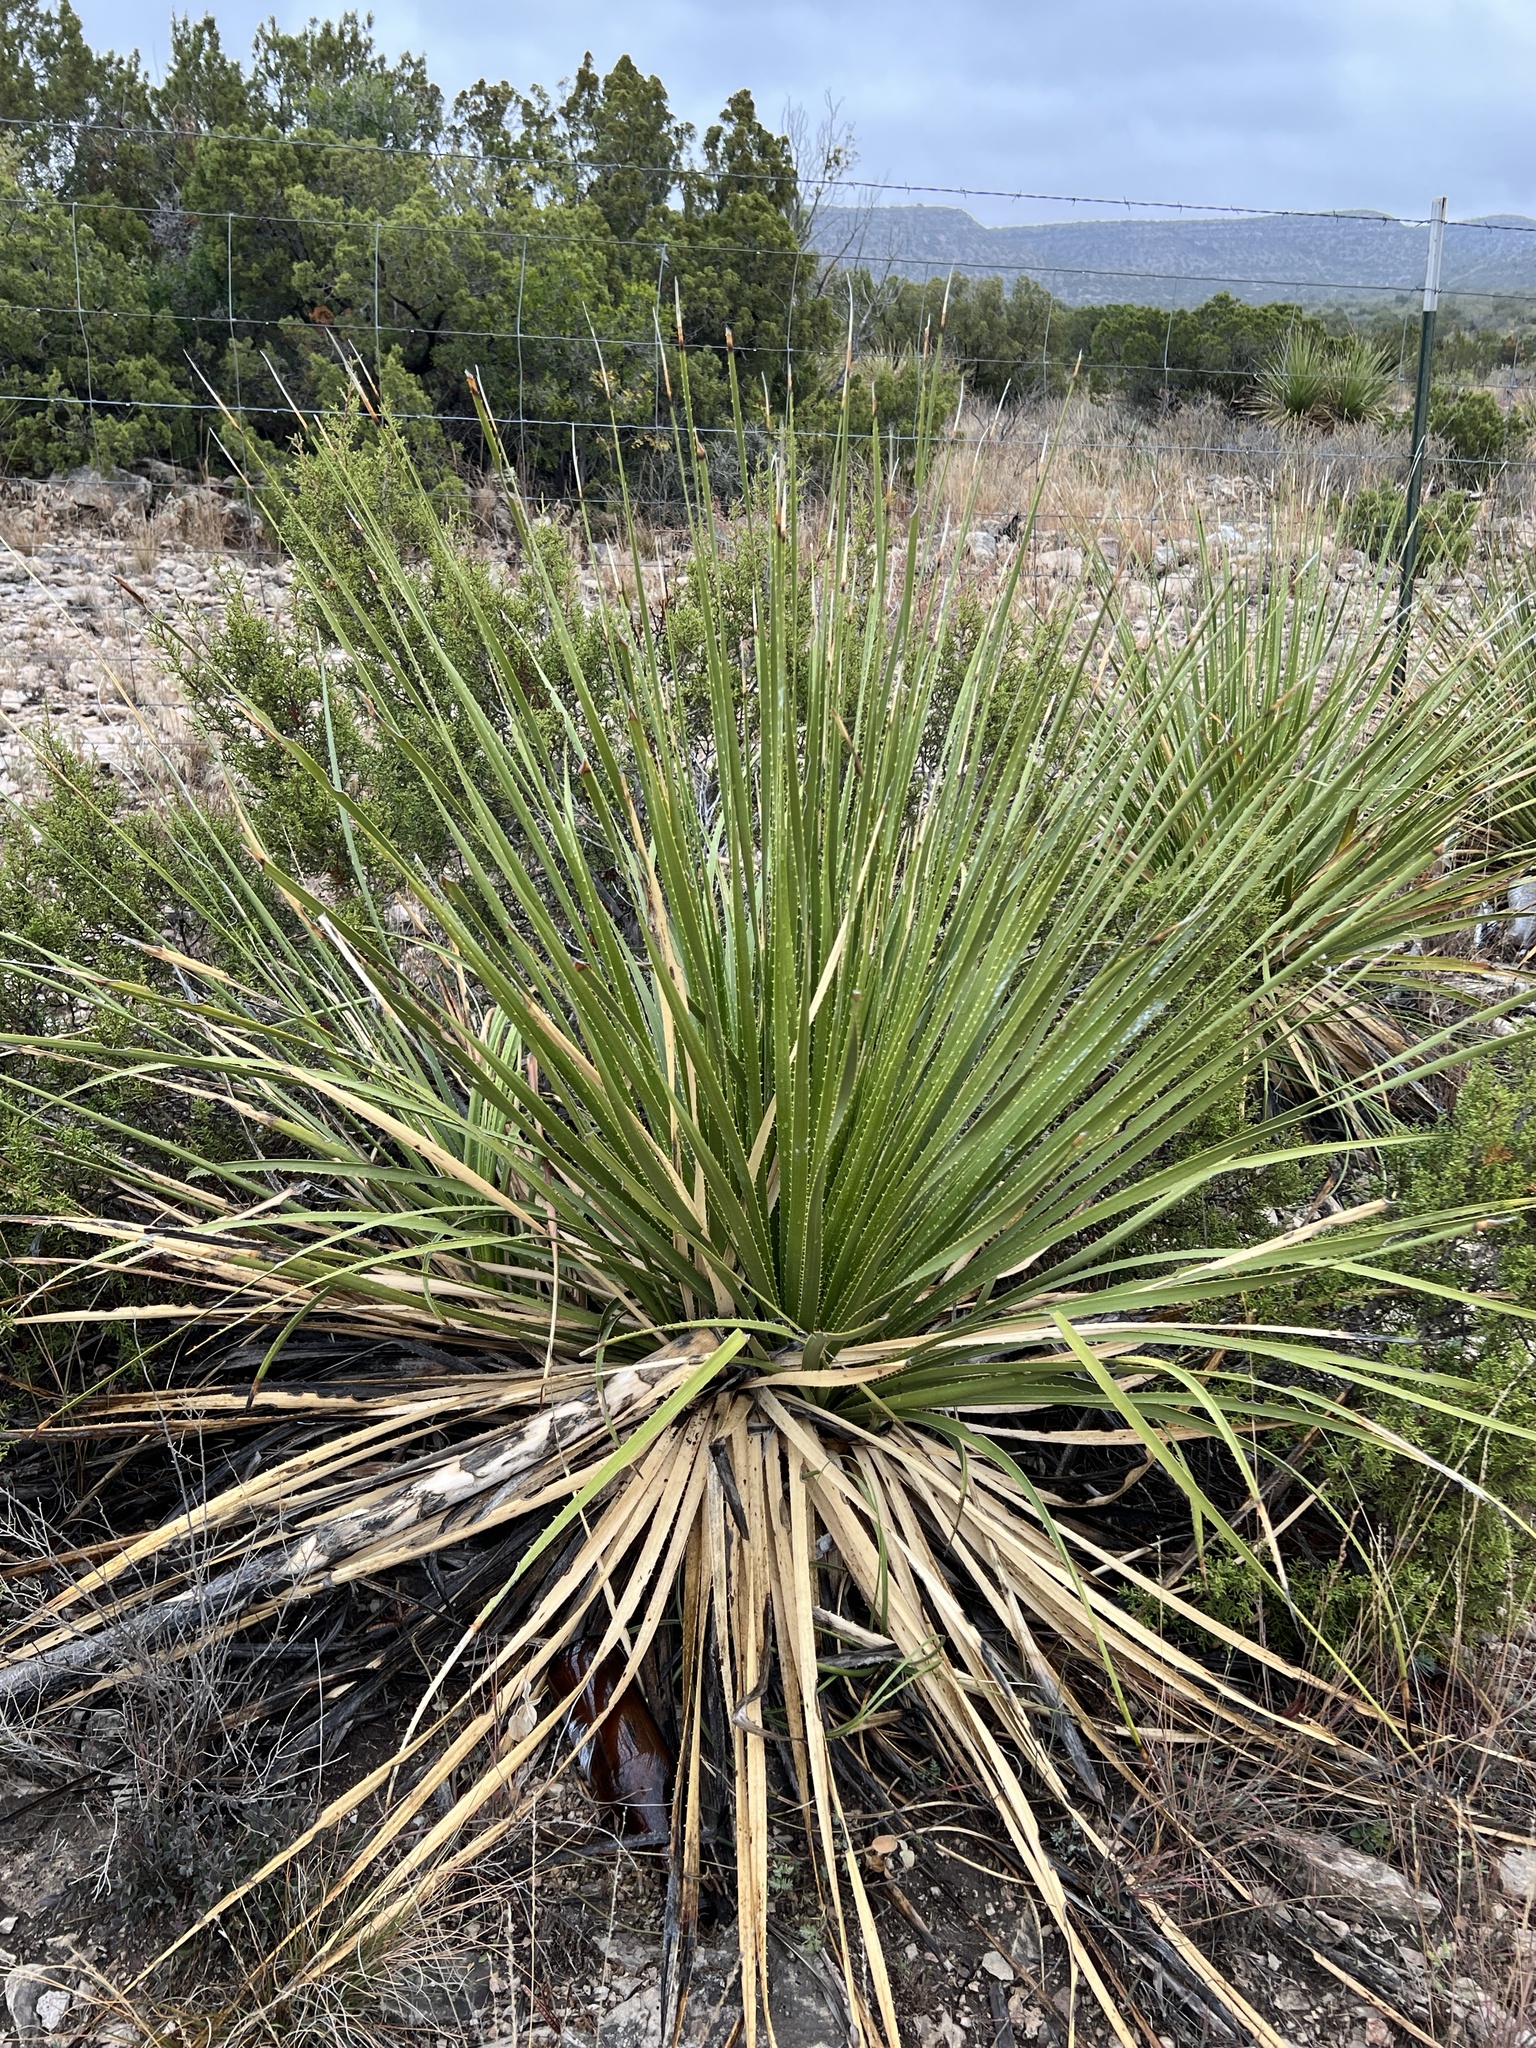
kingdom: Plantae
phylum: Tracheophyta
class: Liliopsida
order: Asparagales
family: Asparagaceae
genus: Dasylirion
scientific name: Dasylirion texanum
